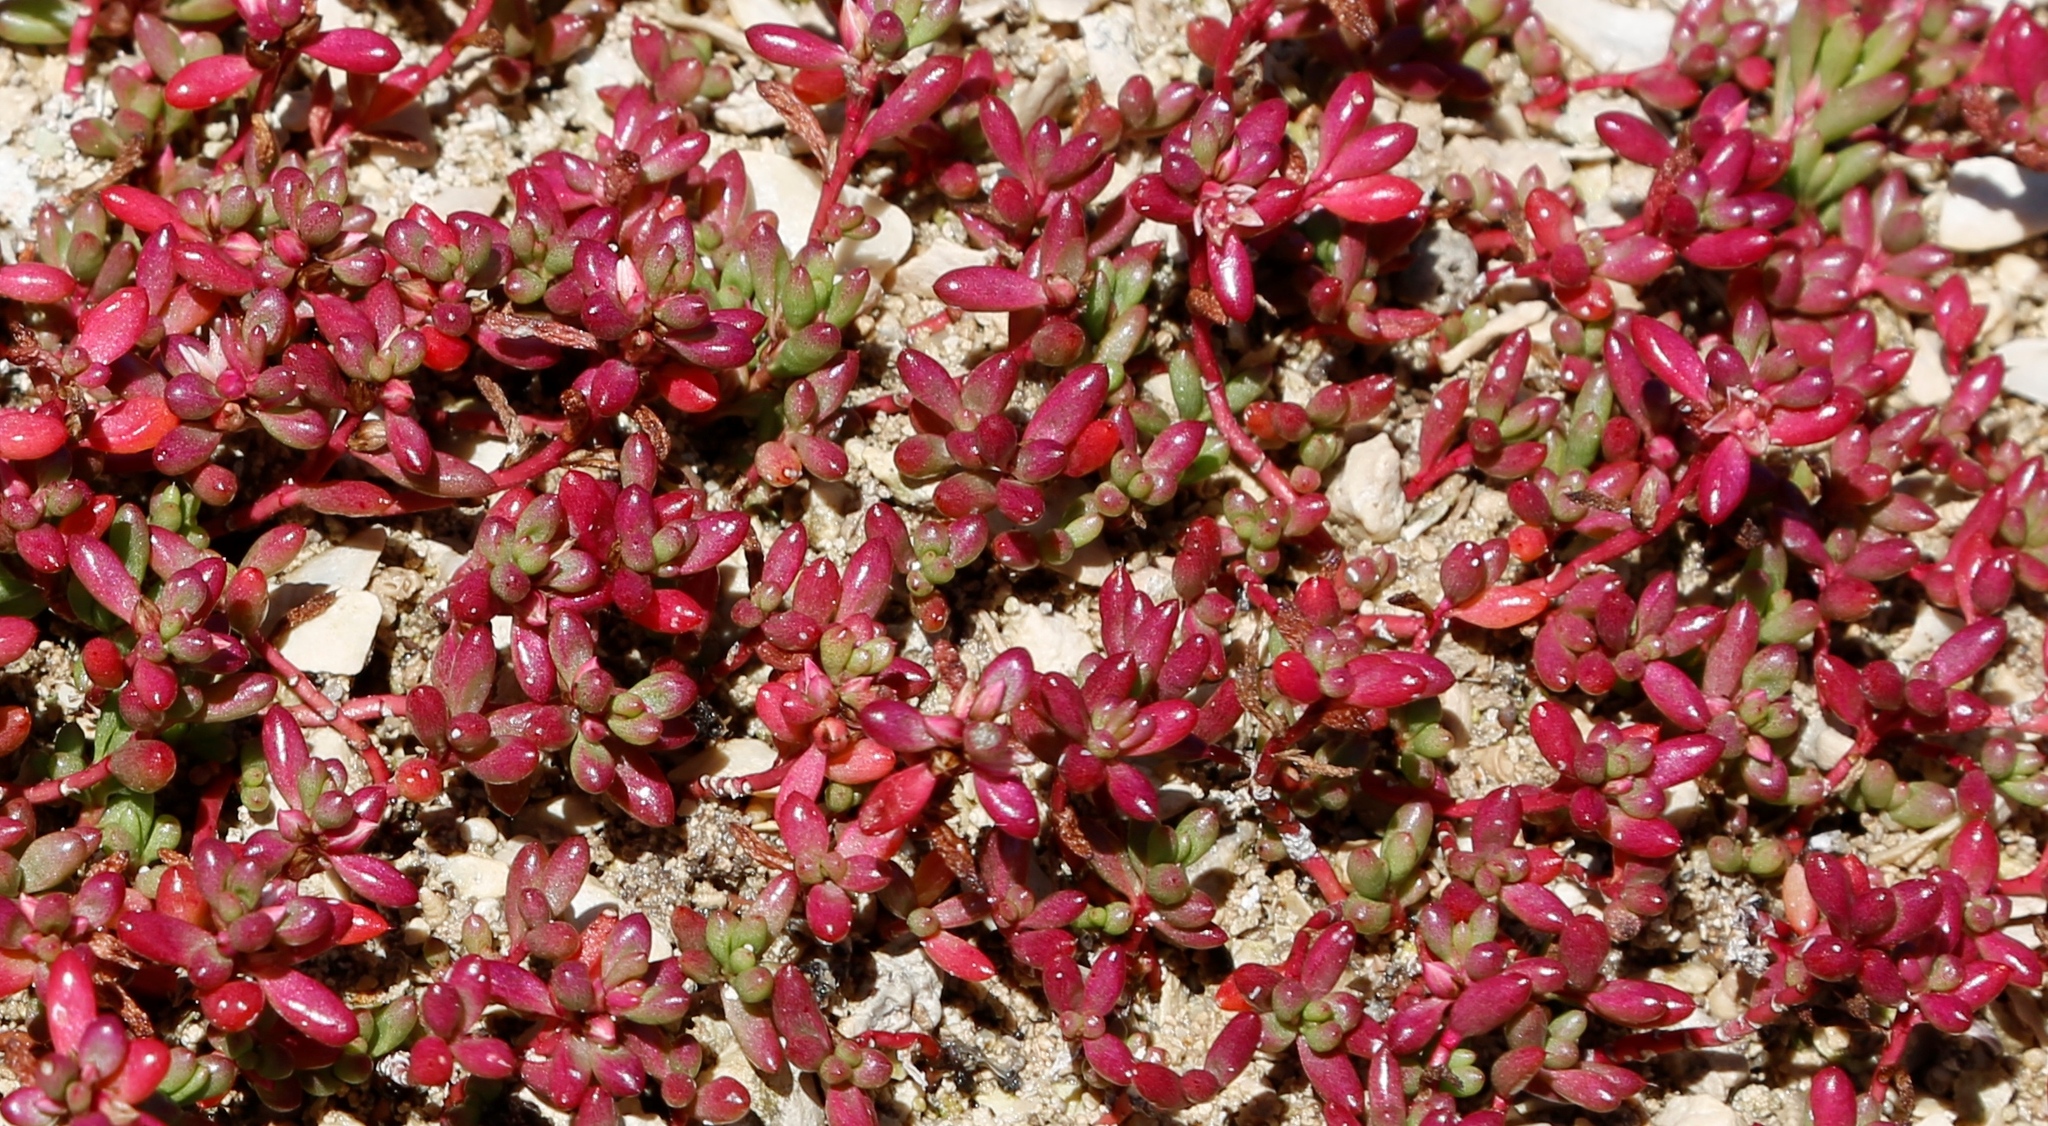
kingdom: Plantae
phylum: Tracheophyta
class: Magnoliopsida
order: Caryophyllales
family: Amaranthaceae
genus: Hemichroa
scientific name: Hemichroa pentandra
